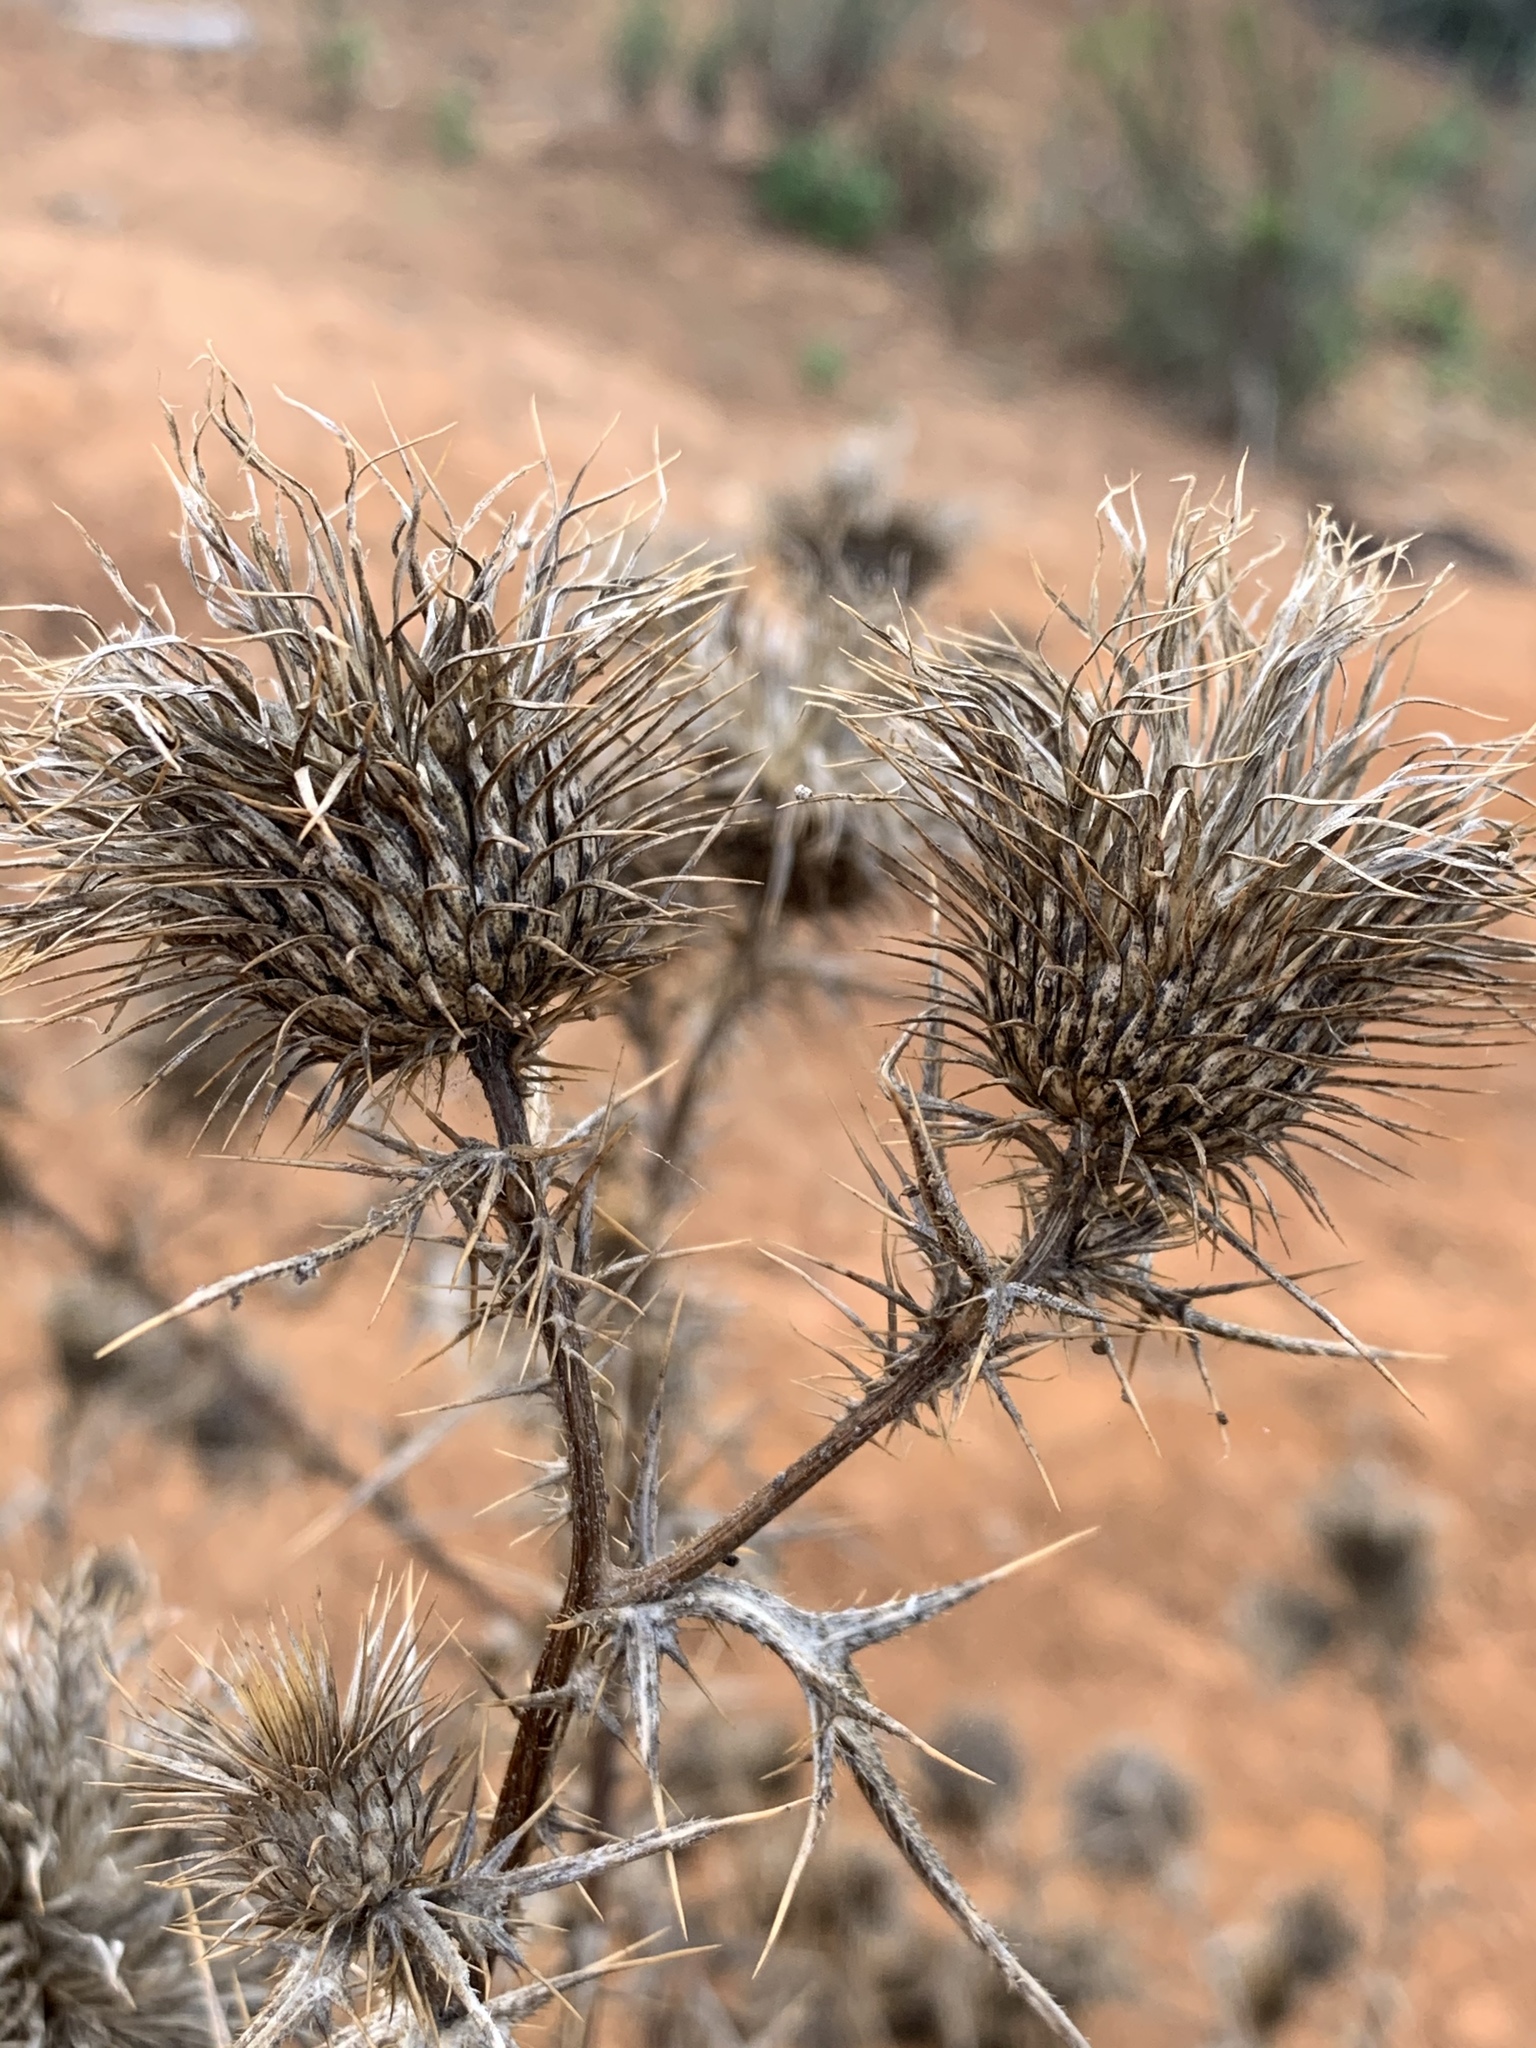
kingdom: Plantae
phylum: Tracheophyta
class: Magnoliopsida
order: Asterales
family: Asteraceae
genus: Cirsium
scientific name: Cirsium vulgare
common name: Bull thistle
